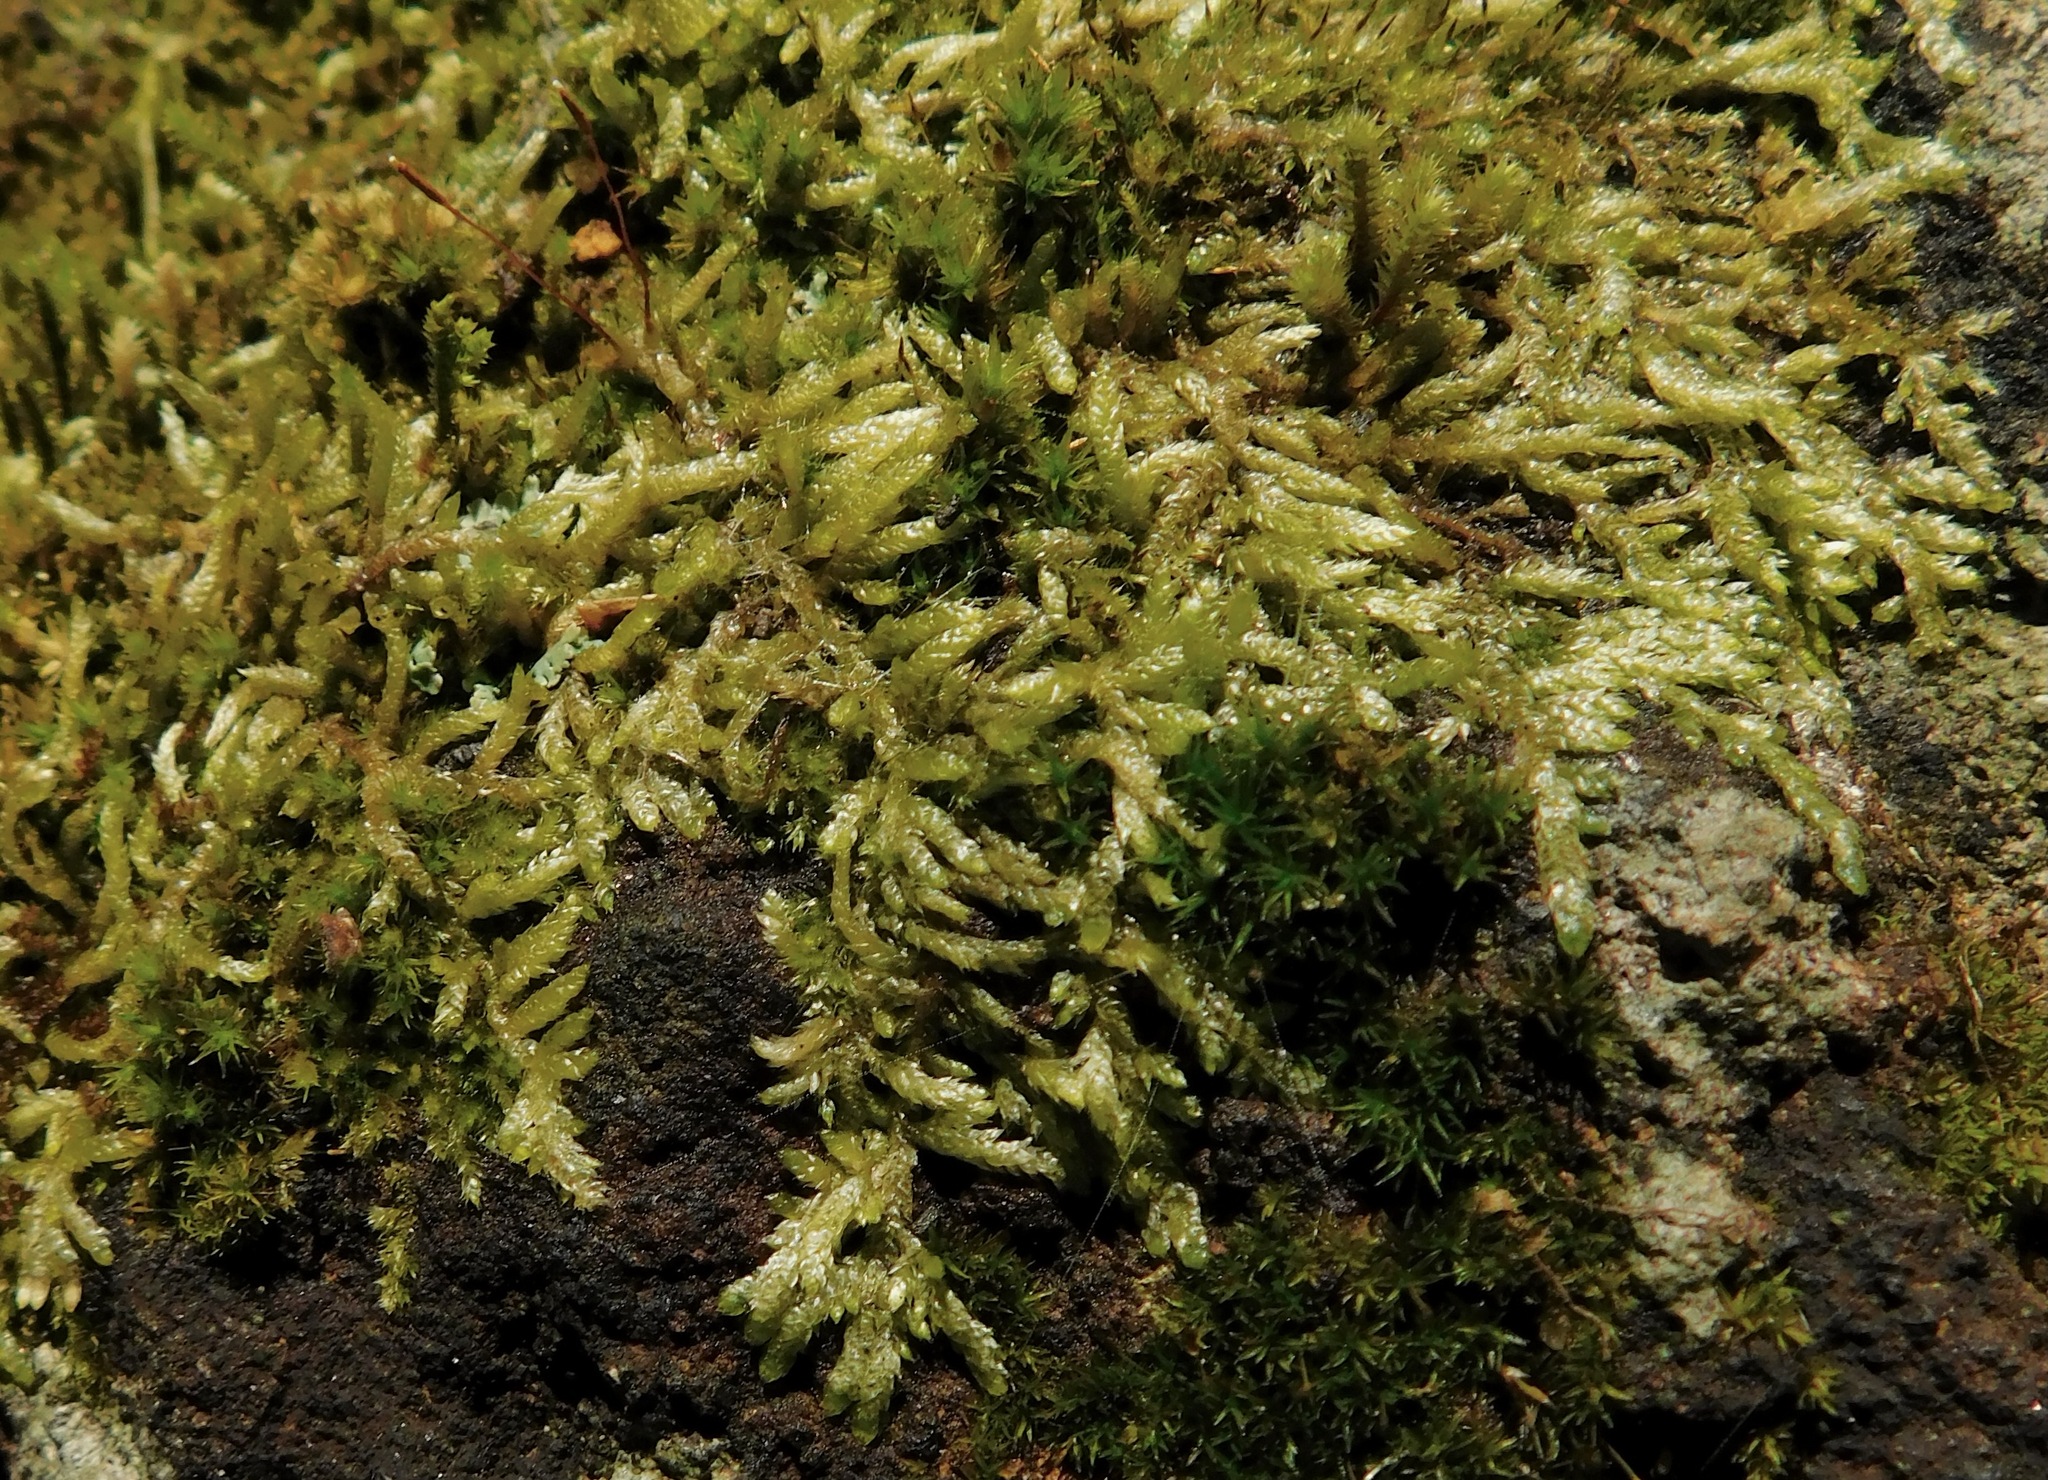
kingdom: Plantae
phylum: Bryophyta
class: Bryopsida
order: Hypnales
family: Entodontaceae
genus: Entodon
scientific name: Entodon cladorrhizans
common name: Flat-stemmed entodon moss
